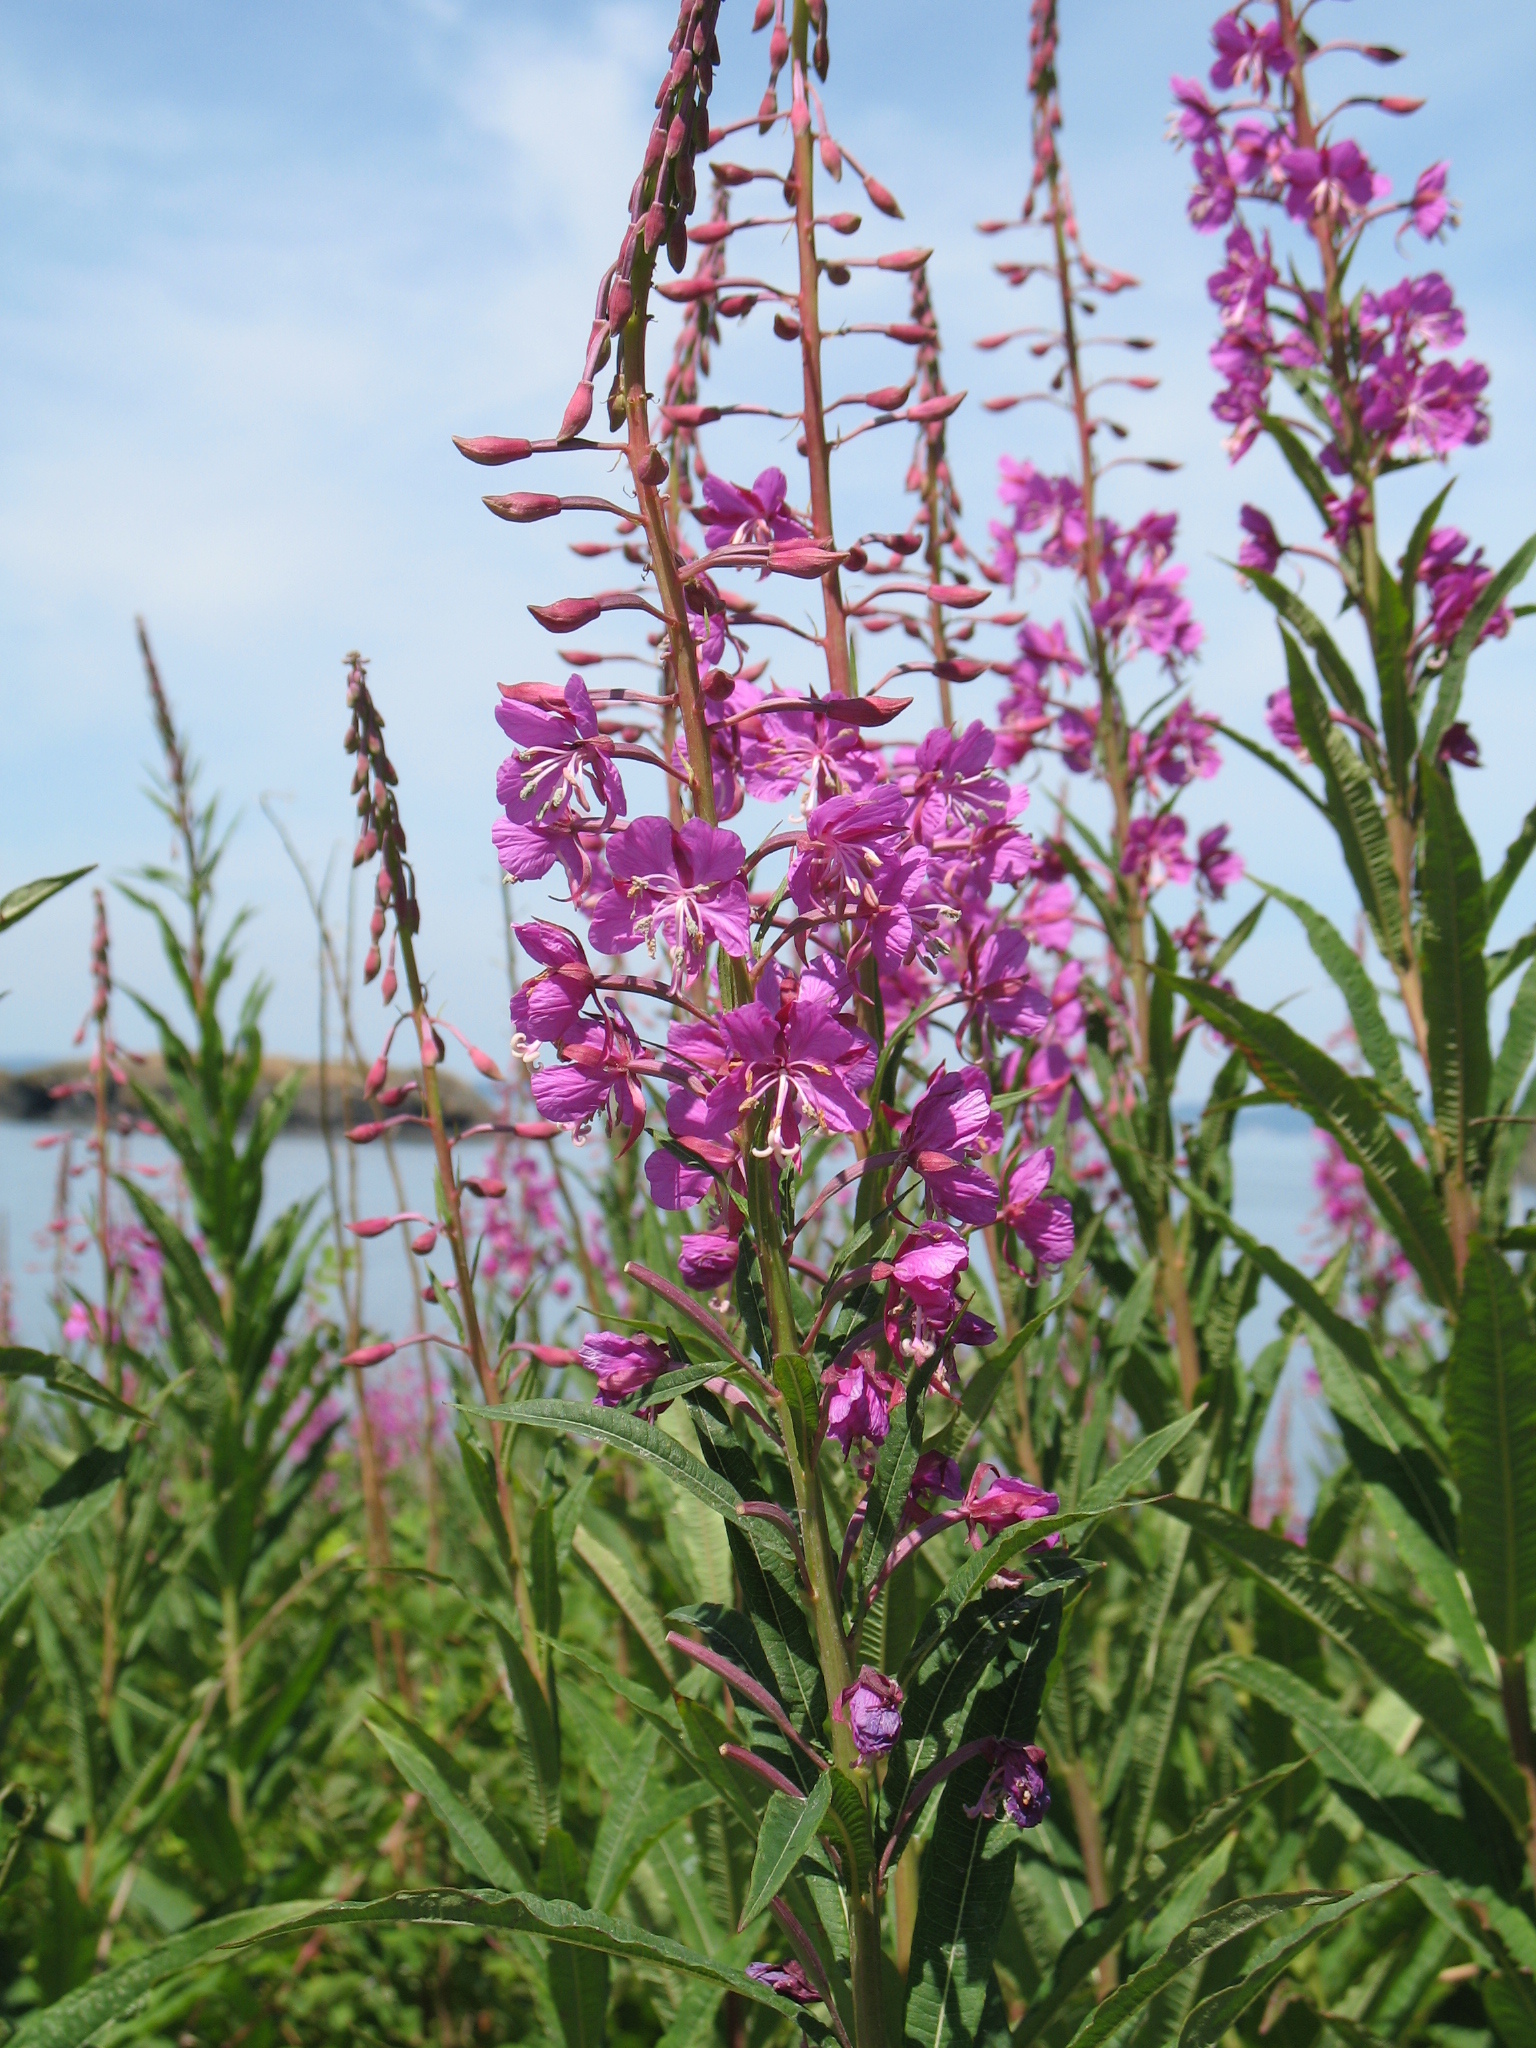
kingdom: Plantae
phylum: Tracheophyta
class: Magnoliopsida
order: Myrtales
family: Onagraceae
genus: Chamaenerion
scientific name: Chamaenerion angustifolium
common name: Fireweed
